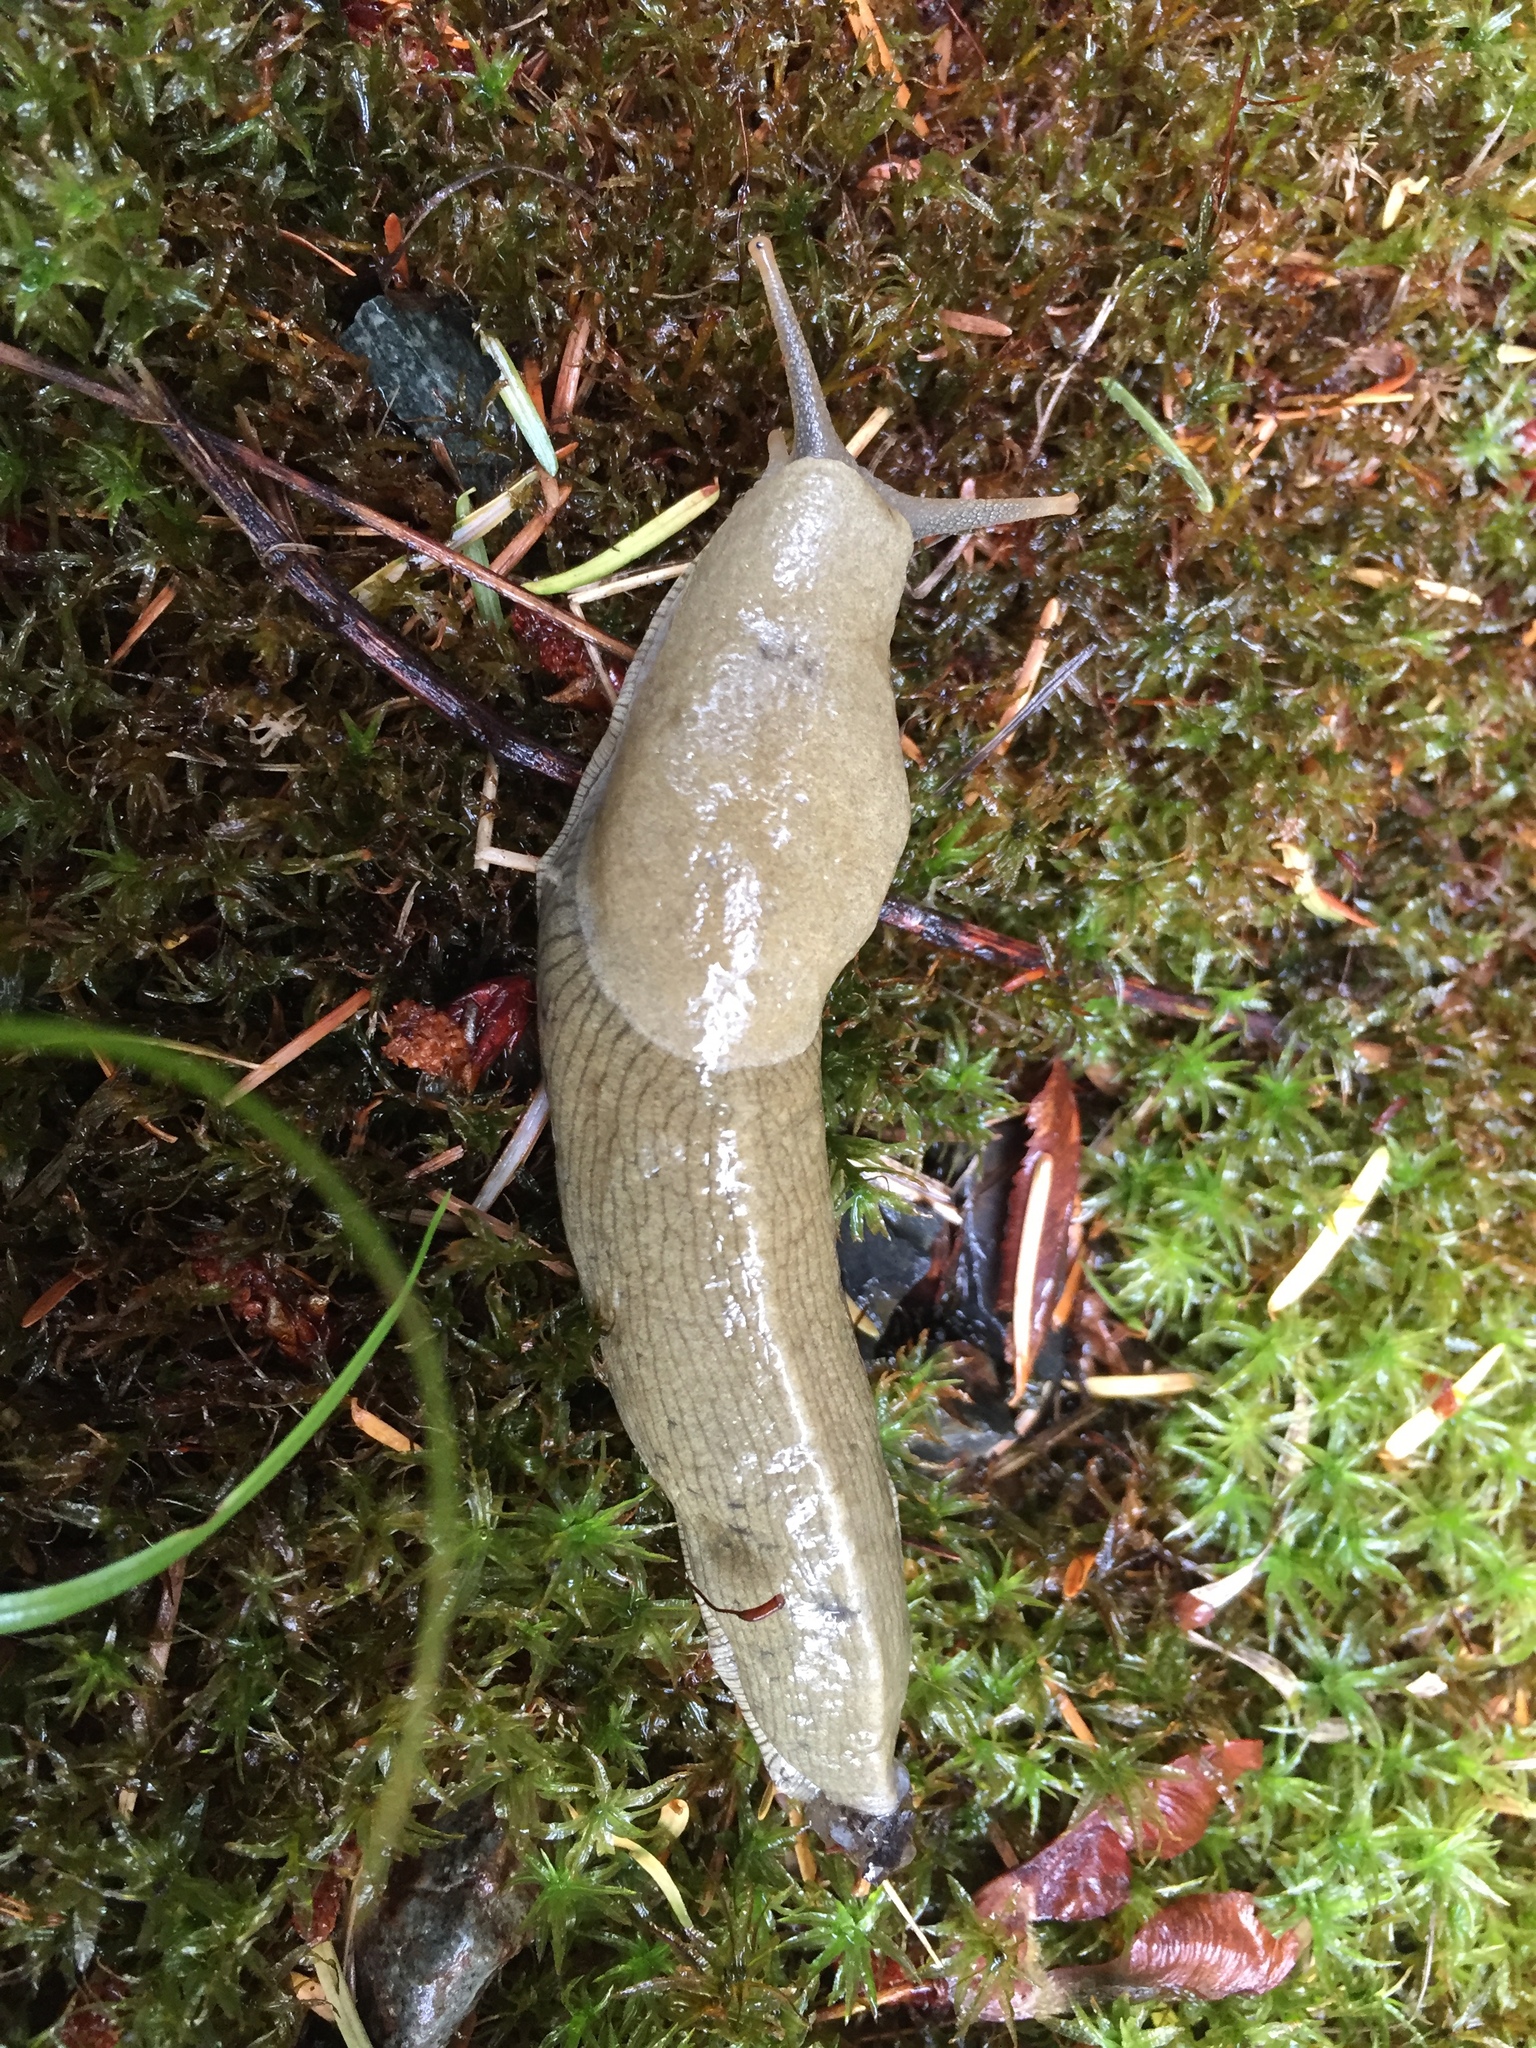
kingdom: Animalia
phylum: Mollusca
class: Gastropoda
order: Stylommatophora
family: Ariolimacidae
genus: Ariolimax
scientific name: Ariolimax columbianus
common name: Pacific banana slug
